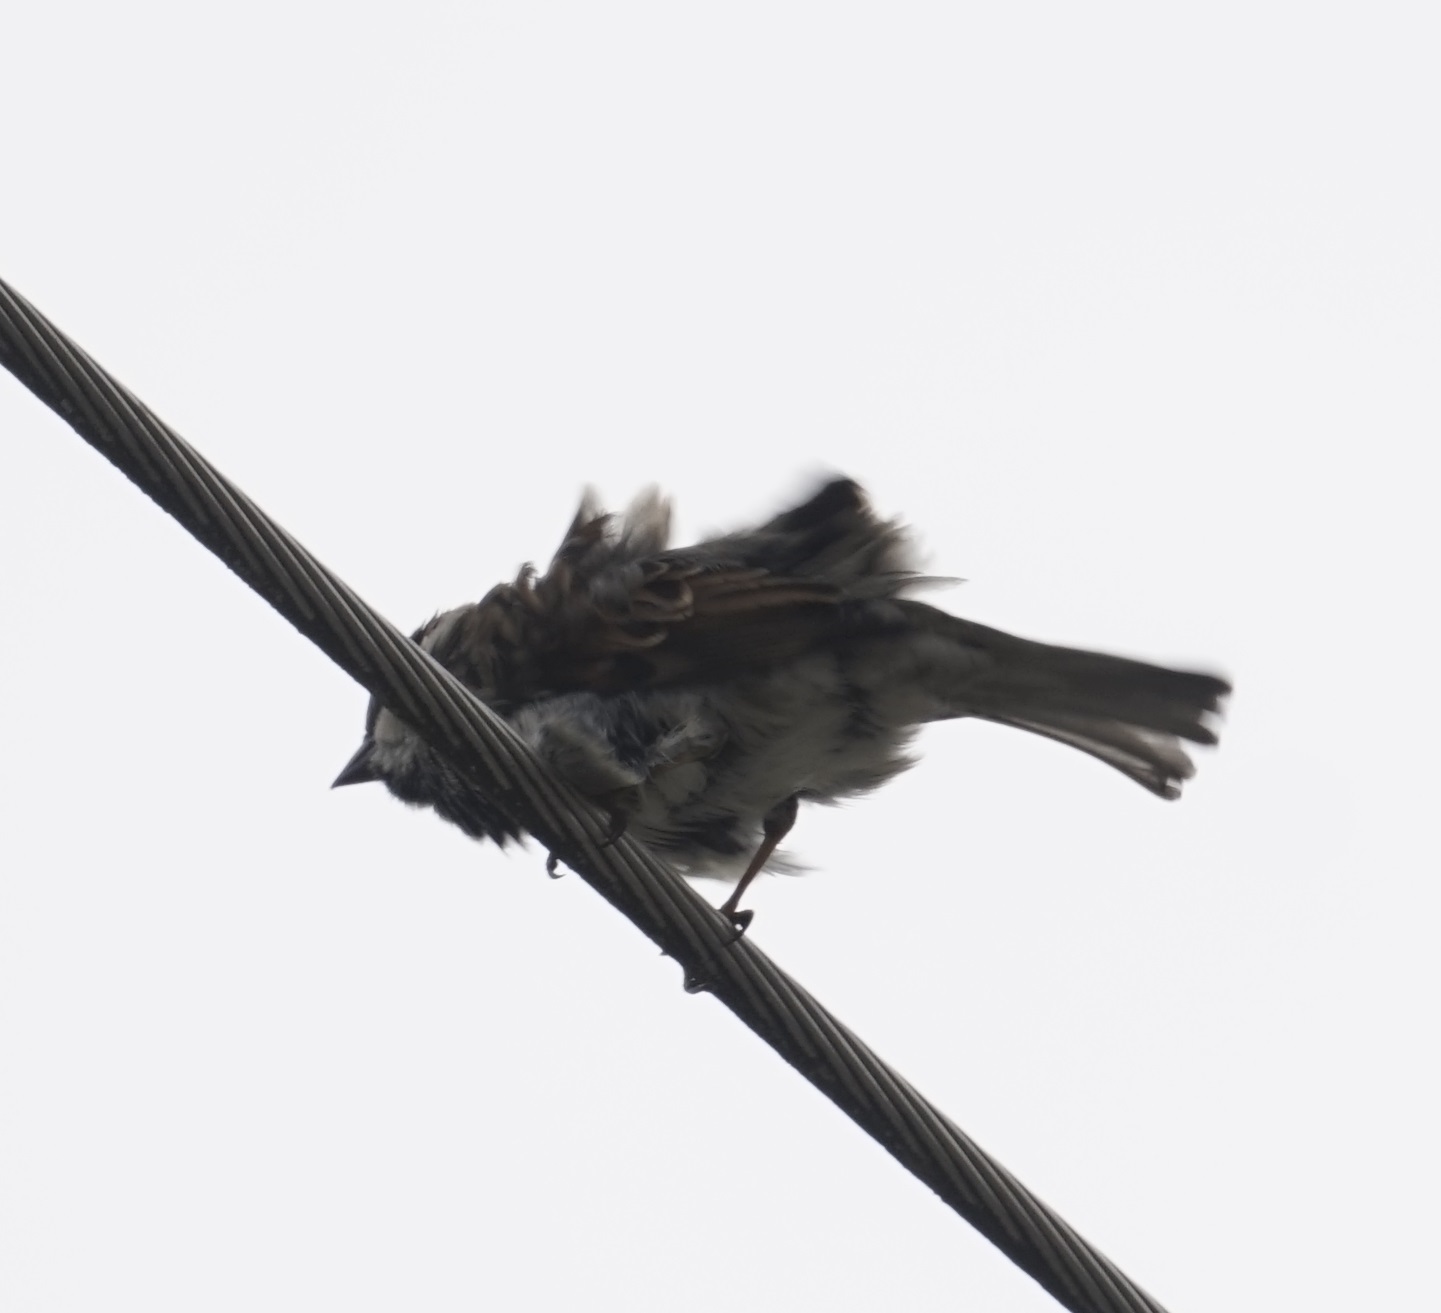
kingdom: Animalia
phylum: Chordata
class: Aves
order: Passeriformes
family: Passeridae
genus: Passer
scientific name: Passer domesticus
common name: House sparrow
